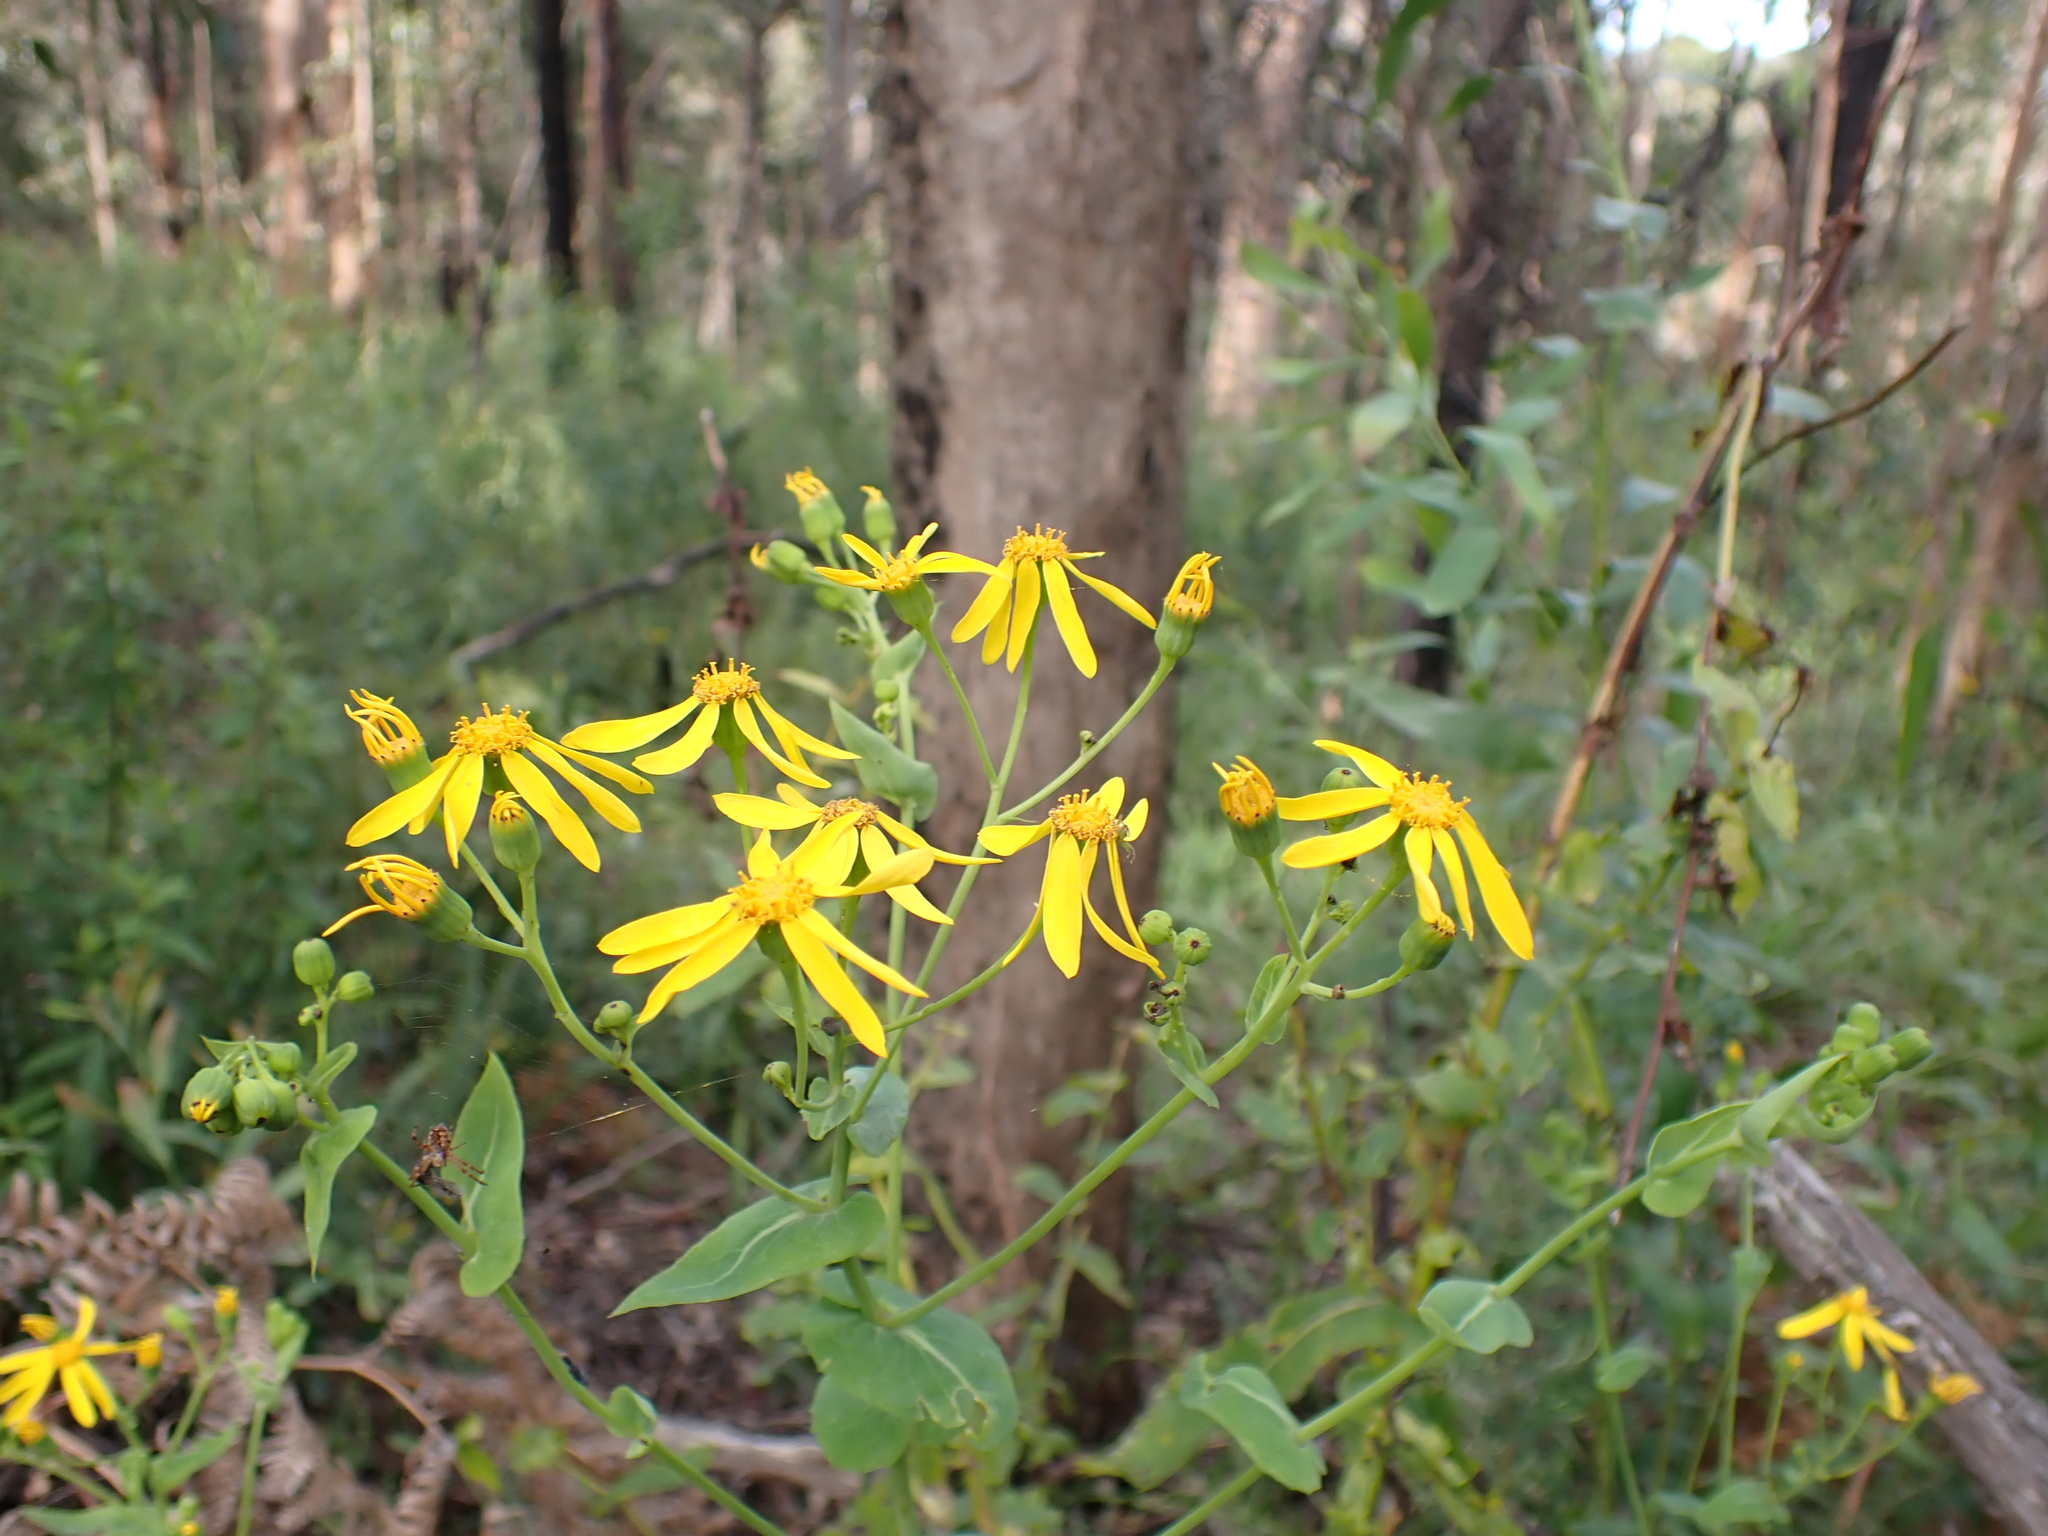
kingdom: Plantae
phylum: Tracheophyta
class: Magnoliopsida
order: Asterales
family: Asteraceae
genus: Lordhowea
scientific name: Lordhowea velleioides
